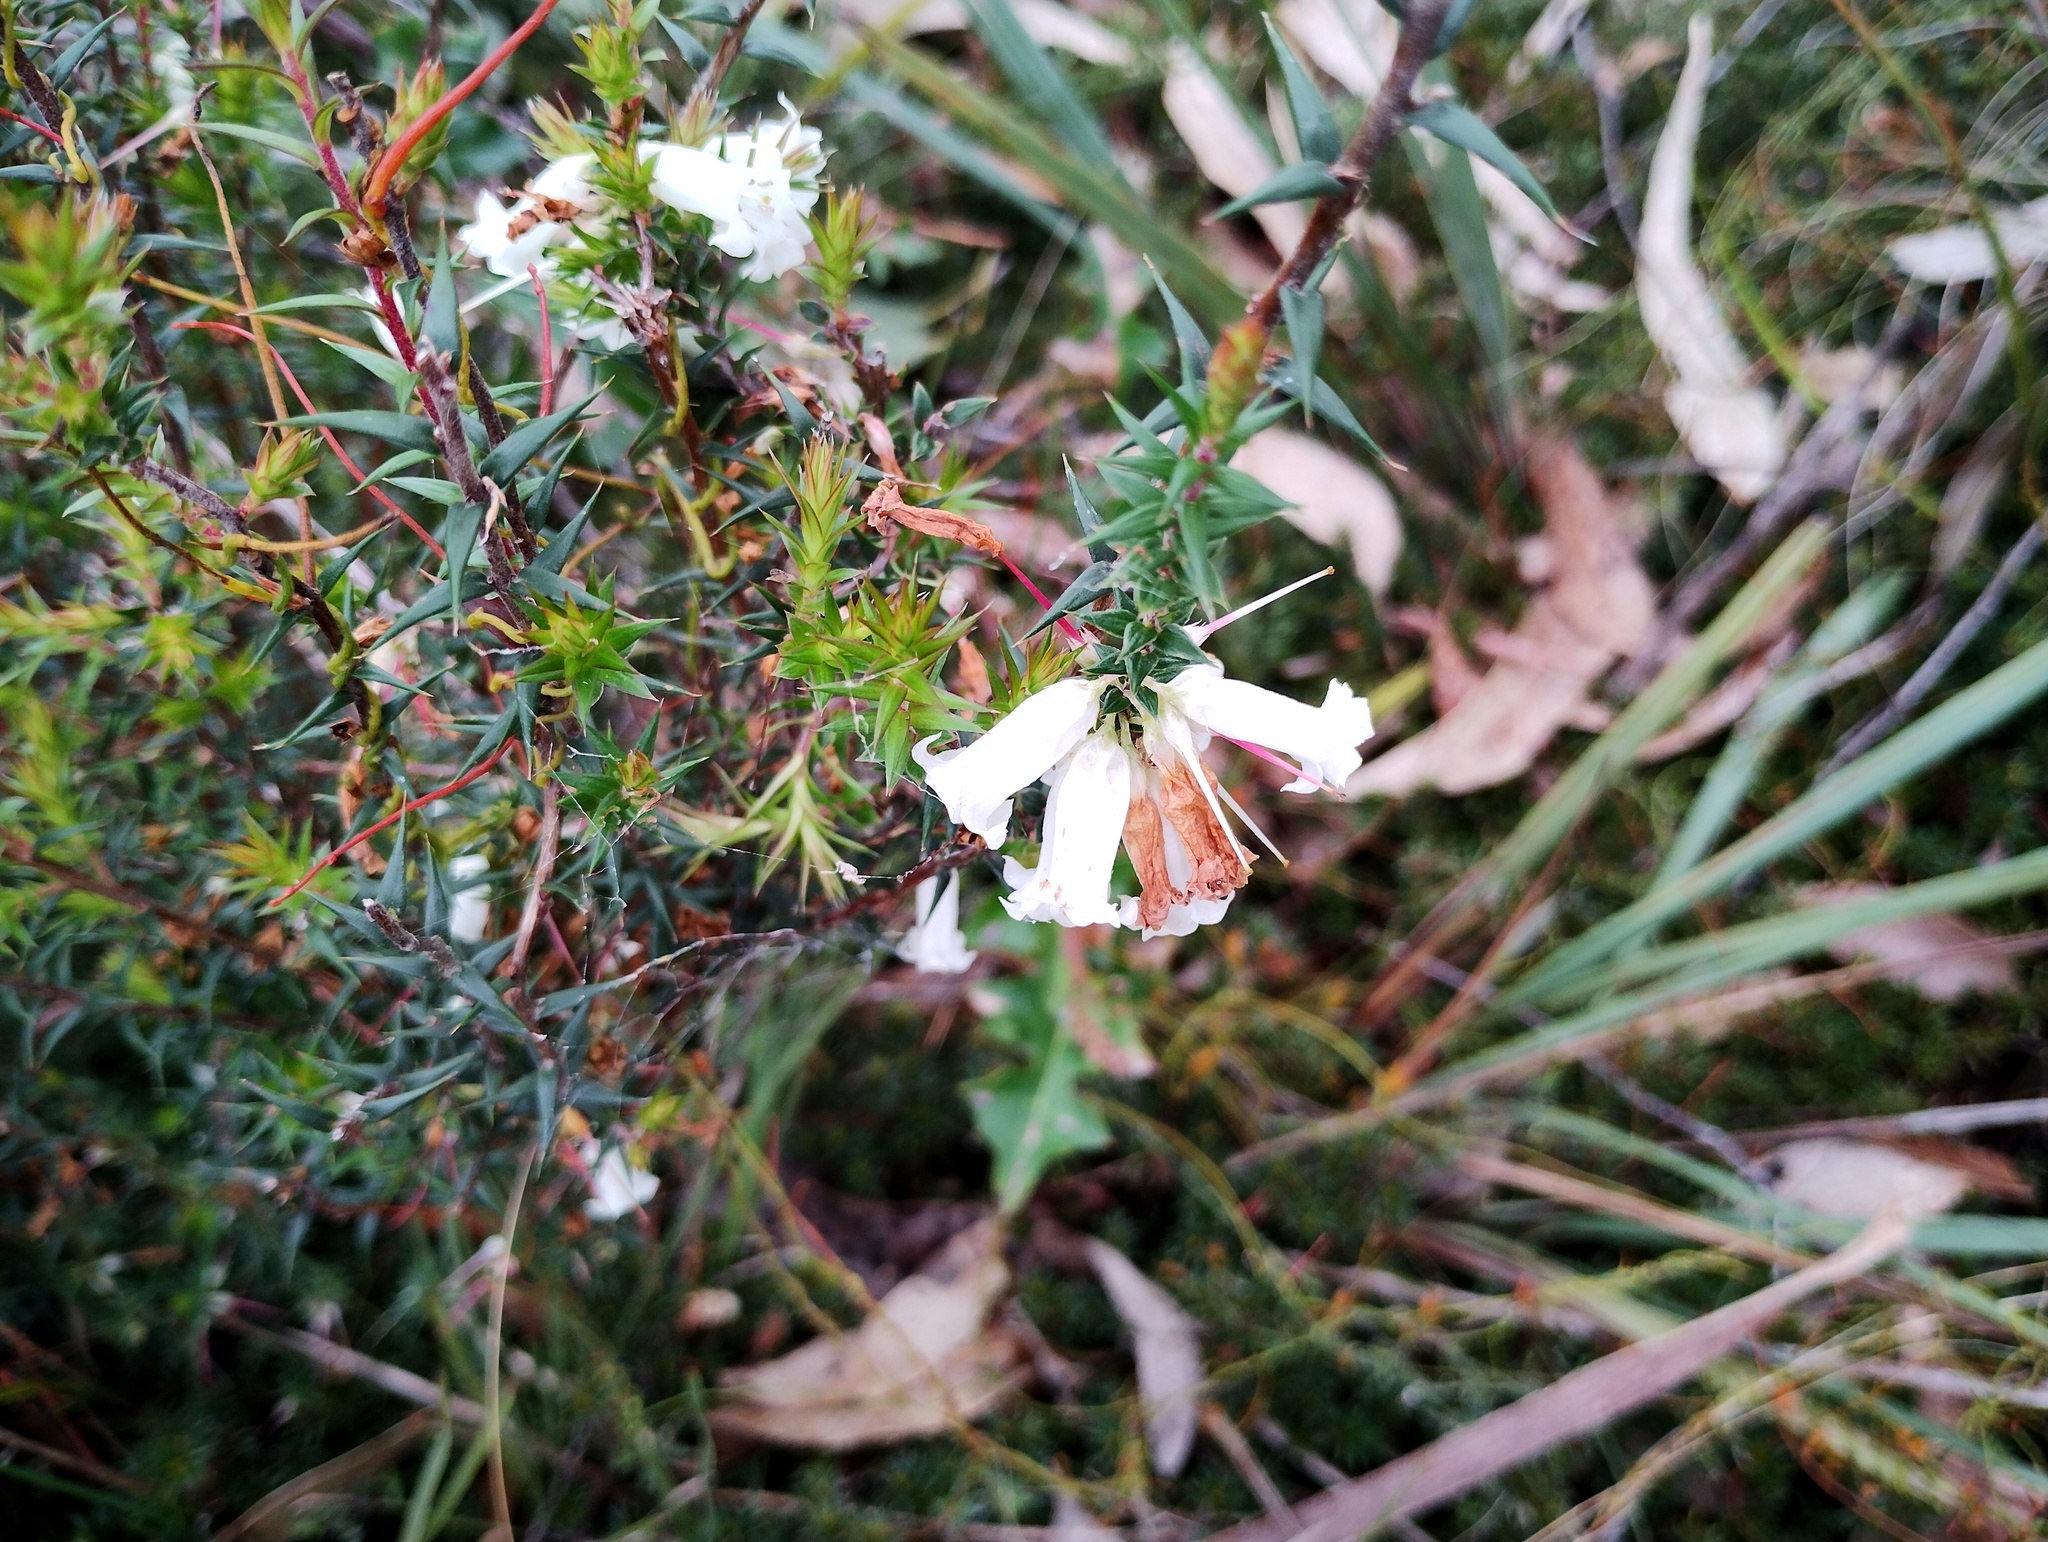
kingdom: Plantae
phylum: Tracheophyta
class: Magnoliopsida
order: Ericales
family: Ericaceae
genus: Epacris
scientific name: Epacris impressa
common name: Common-heath
